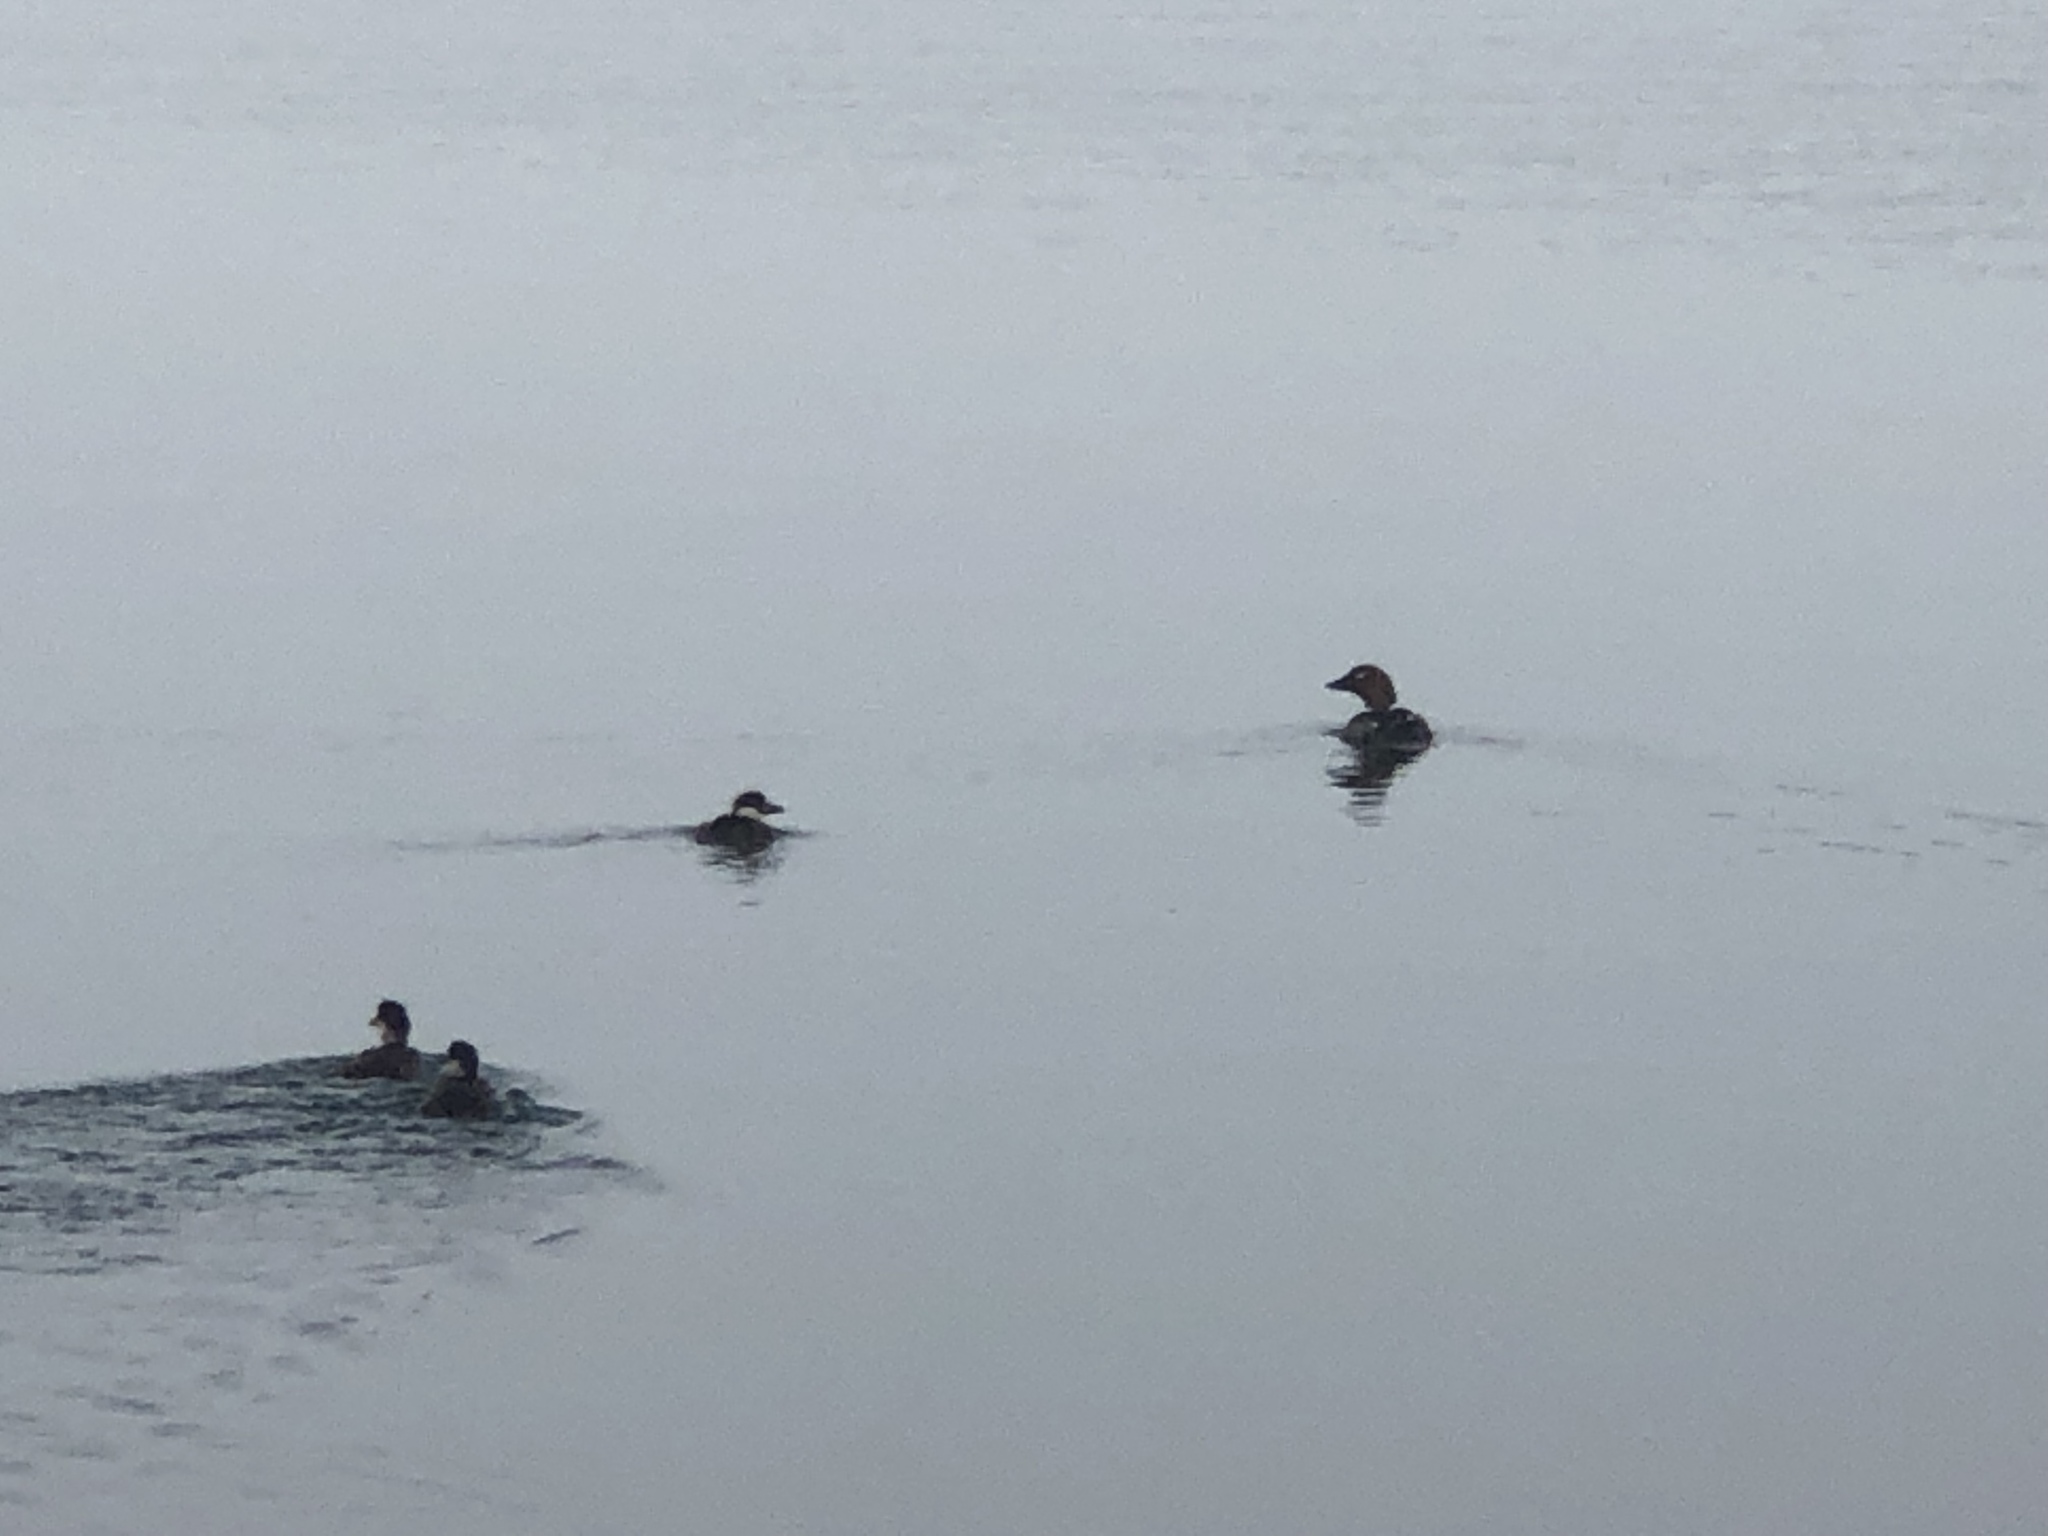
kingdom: Animalia
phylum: Chordata
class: Aves
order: Anseriformes
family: Anatidae
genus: Bucephala
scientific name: Bucephala clangula
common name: Common goldeneye
